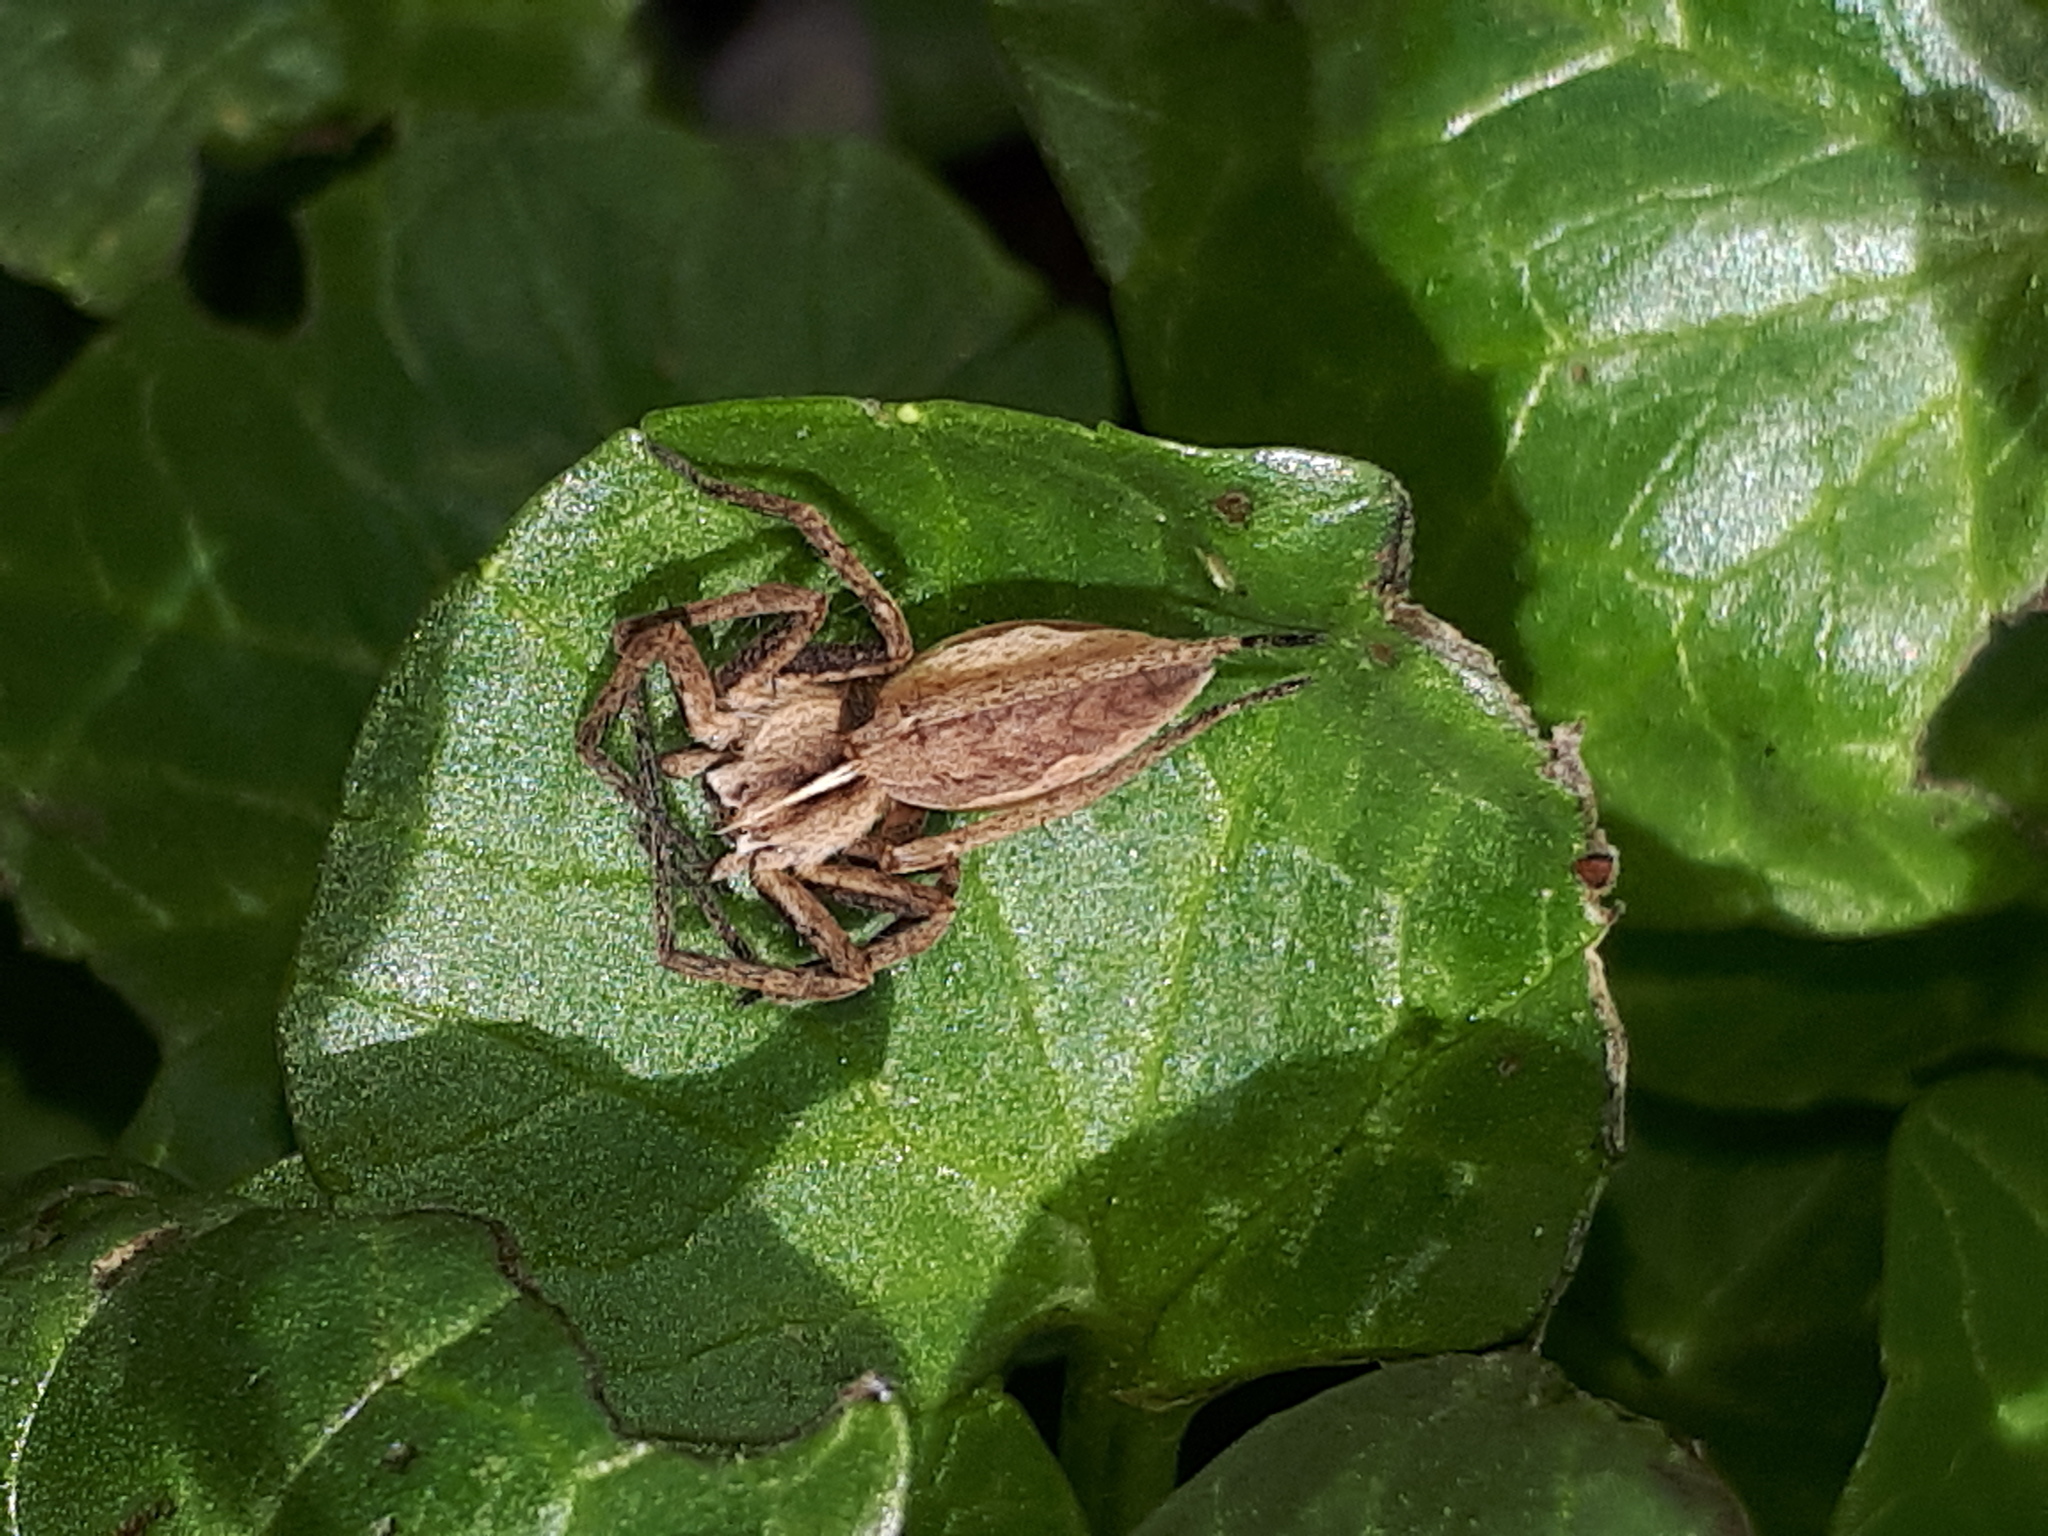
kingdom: Animalia
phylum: Arthropoda
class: Arachnida
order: Araneae
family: Pisauridae
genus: Pisaura
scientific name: Pisaura mirabilis
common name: Tent spider
